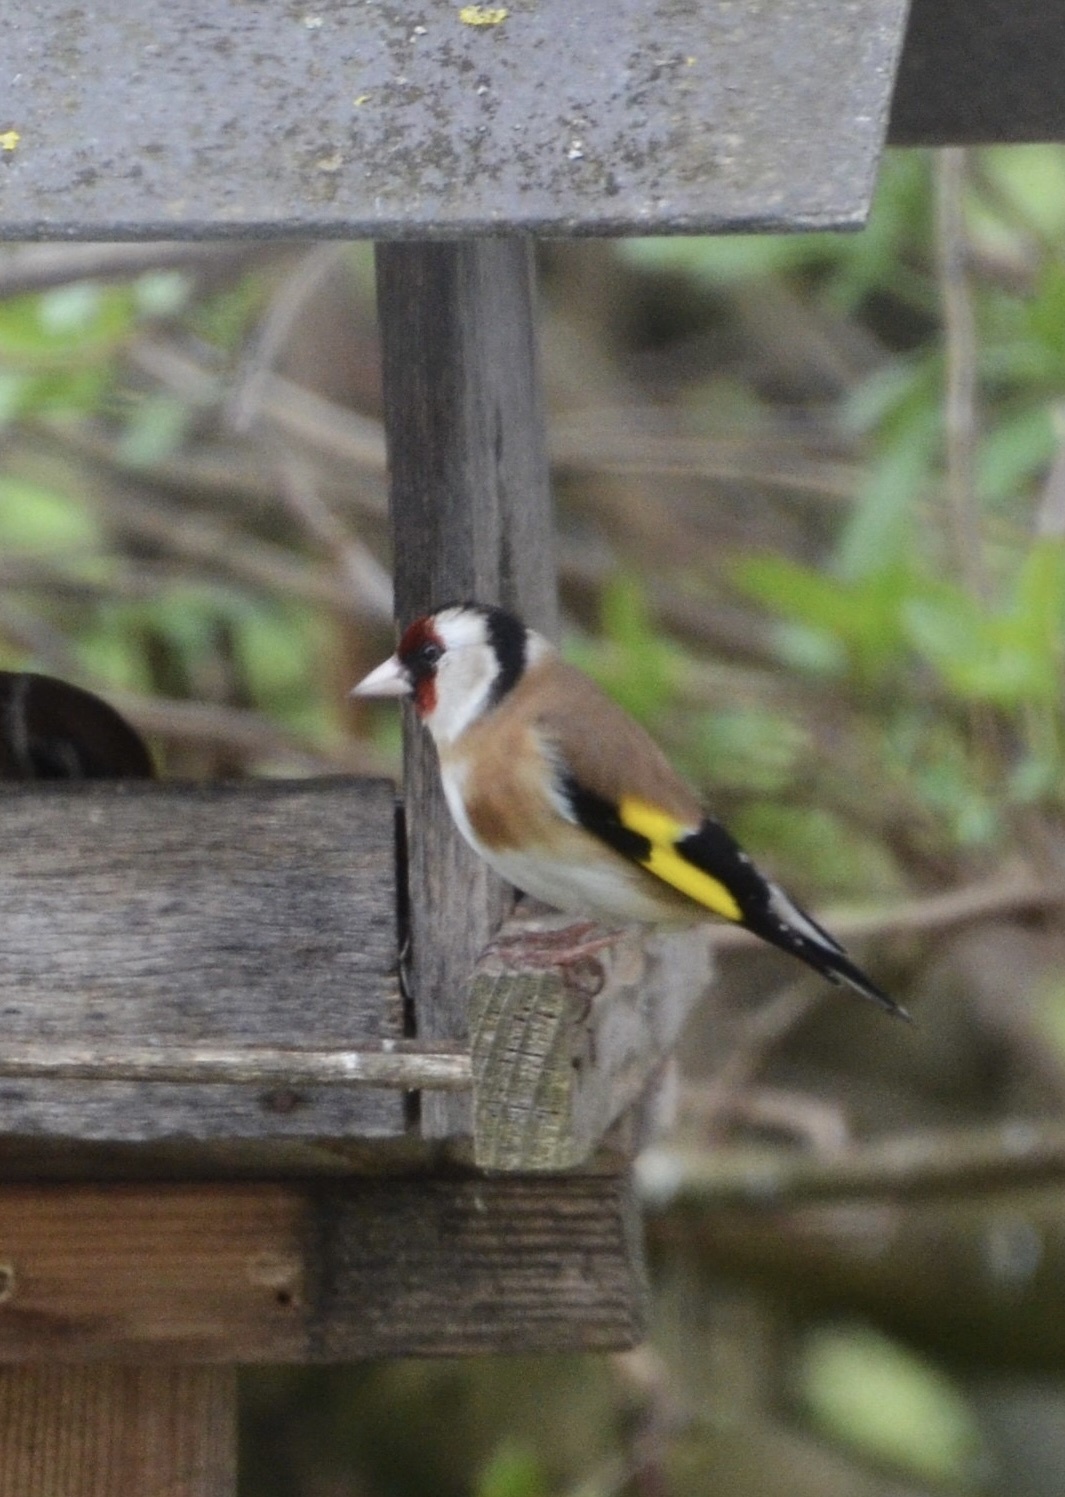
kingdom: Animalia
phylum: Chordata
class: Aves
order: Passeriformes
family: Fringillidae
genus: Carduelis
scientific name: Carduelis carduelis
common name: European goldfinch
